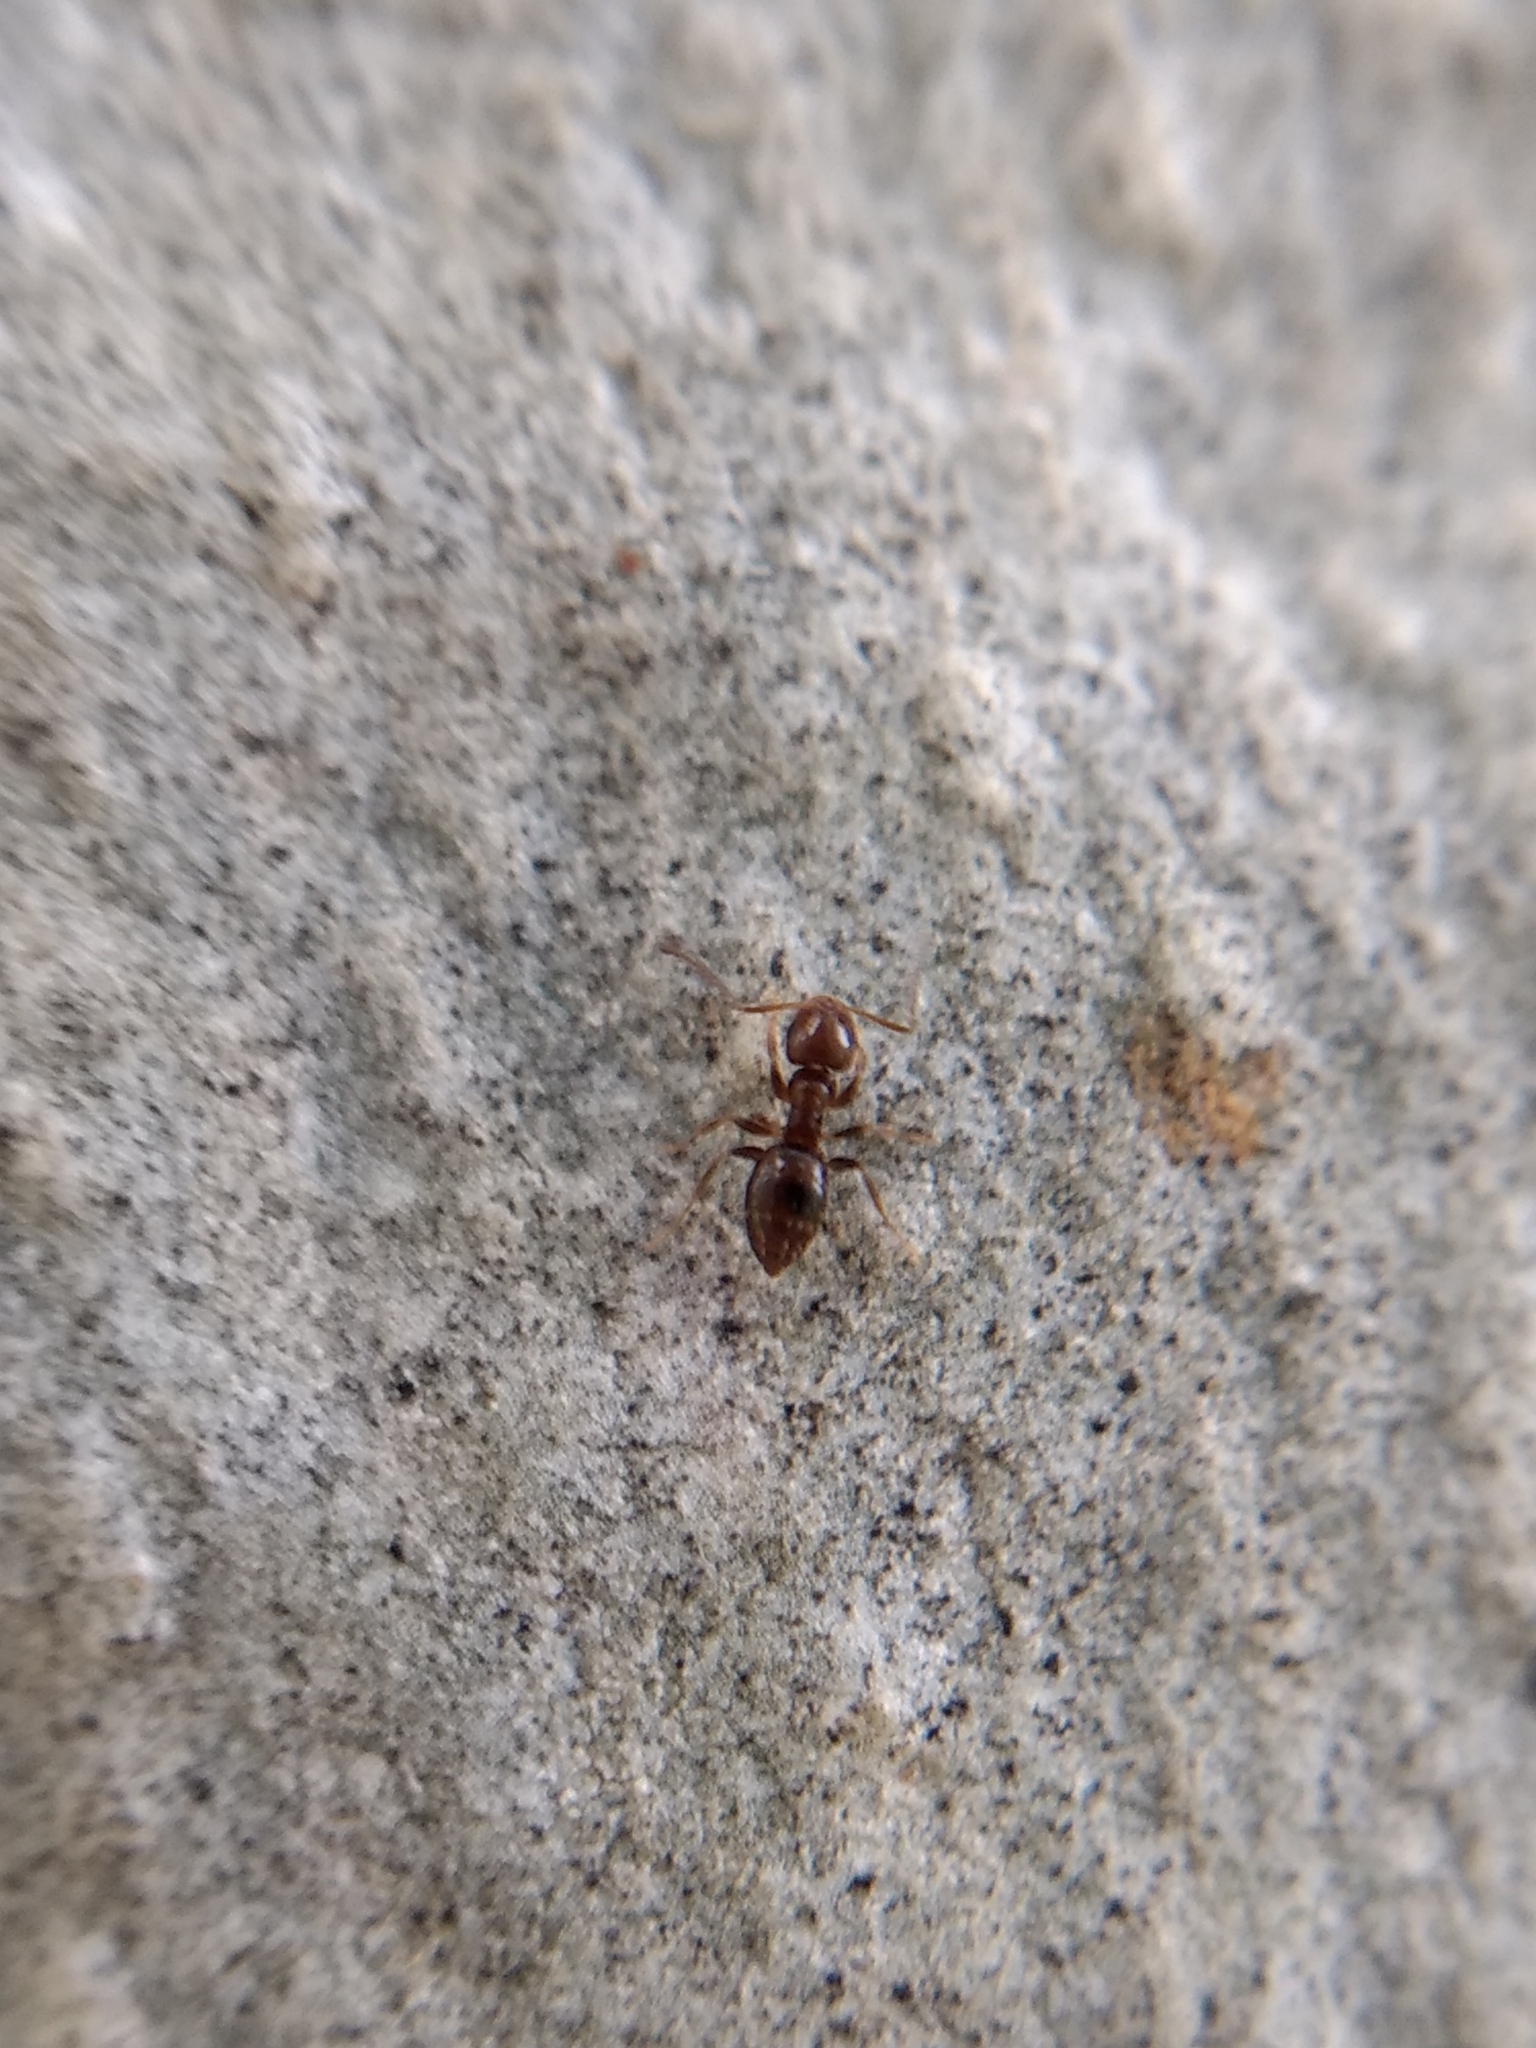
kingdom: Animalia
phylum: Arthropoda
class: Insecta
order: Hymenoptera
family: Formicidae
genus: Brachymyrmex
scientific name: Brachymyrmex patagonicus
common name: Dark rover ant
